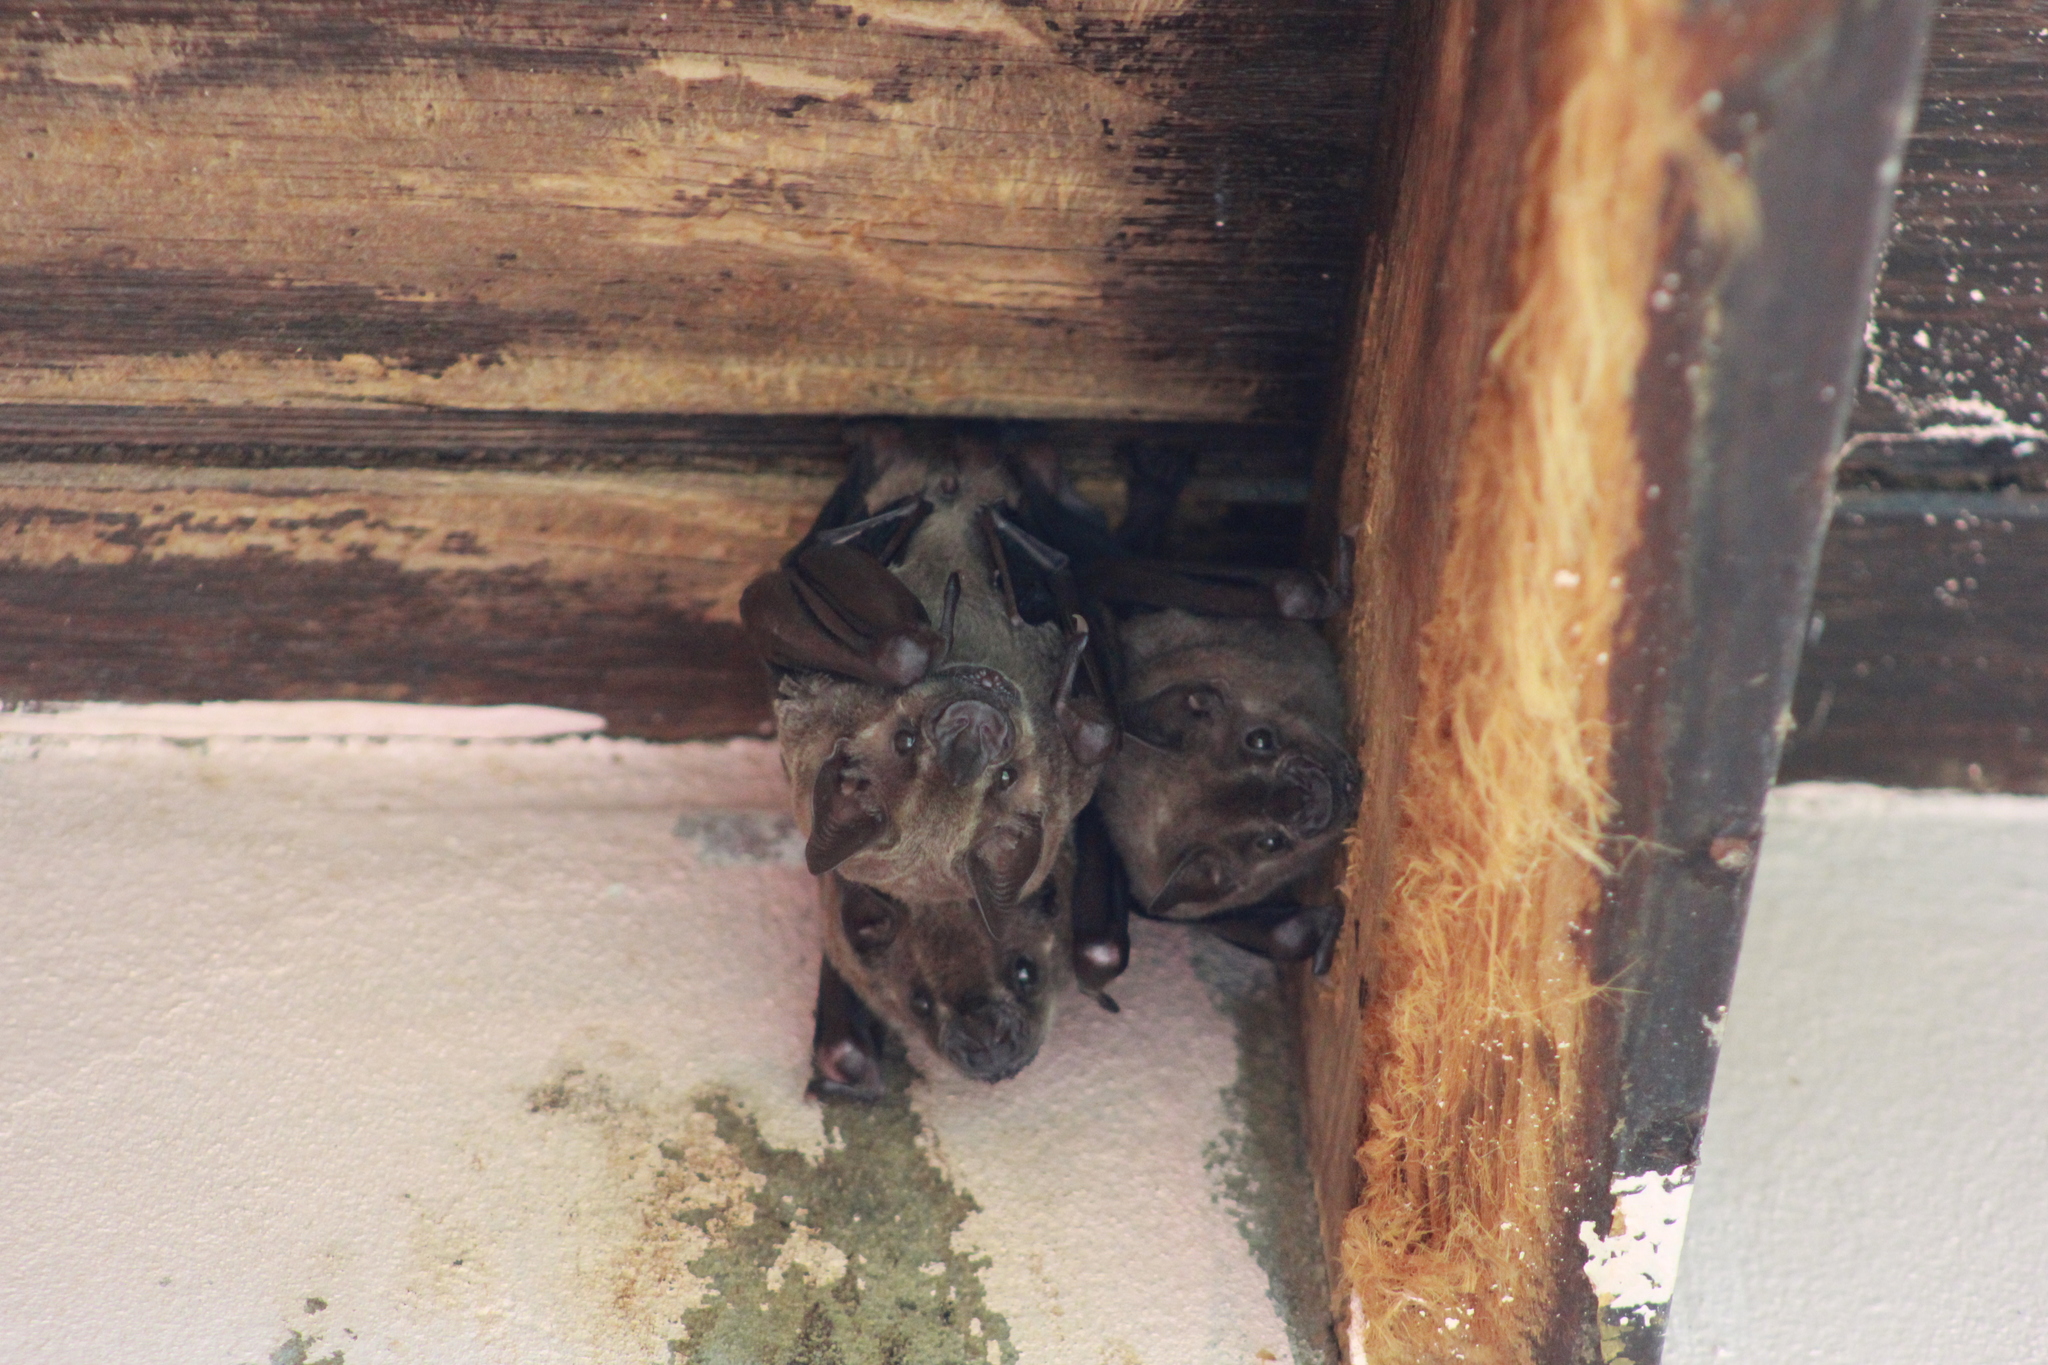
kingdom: Animalia
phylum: Chordata
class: Mammalia
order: Chiroptera
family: Phyllostomidae
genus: Artibeus
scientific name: Artibeus jamaicensis
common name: Jamaican fruit-eating bat
